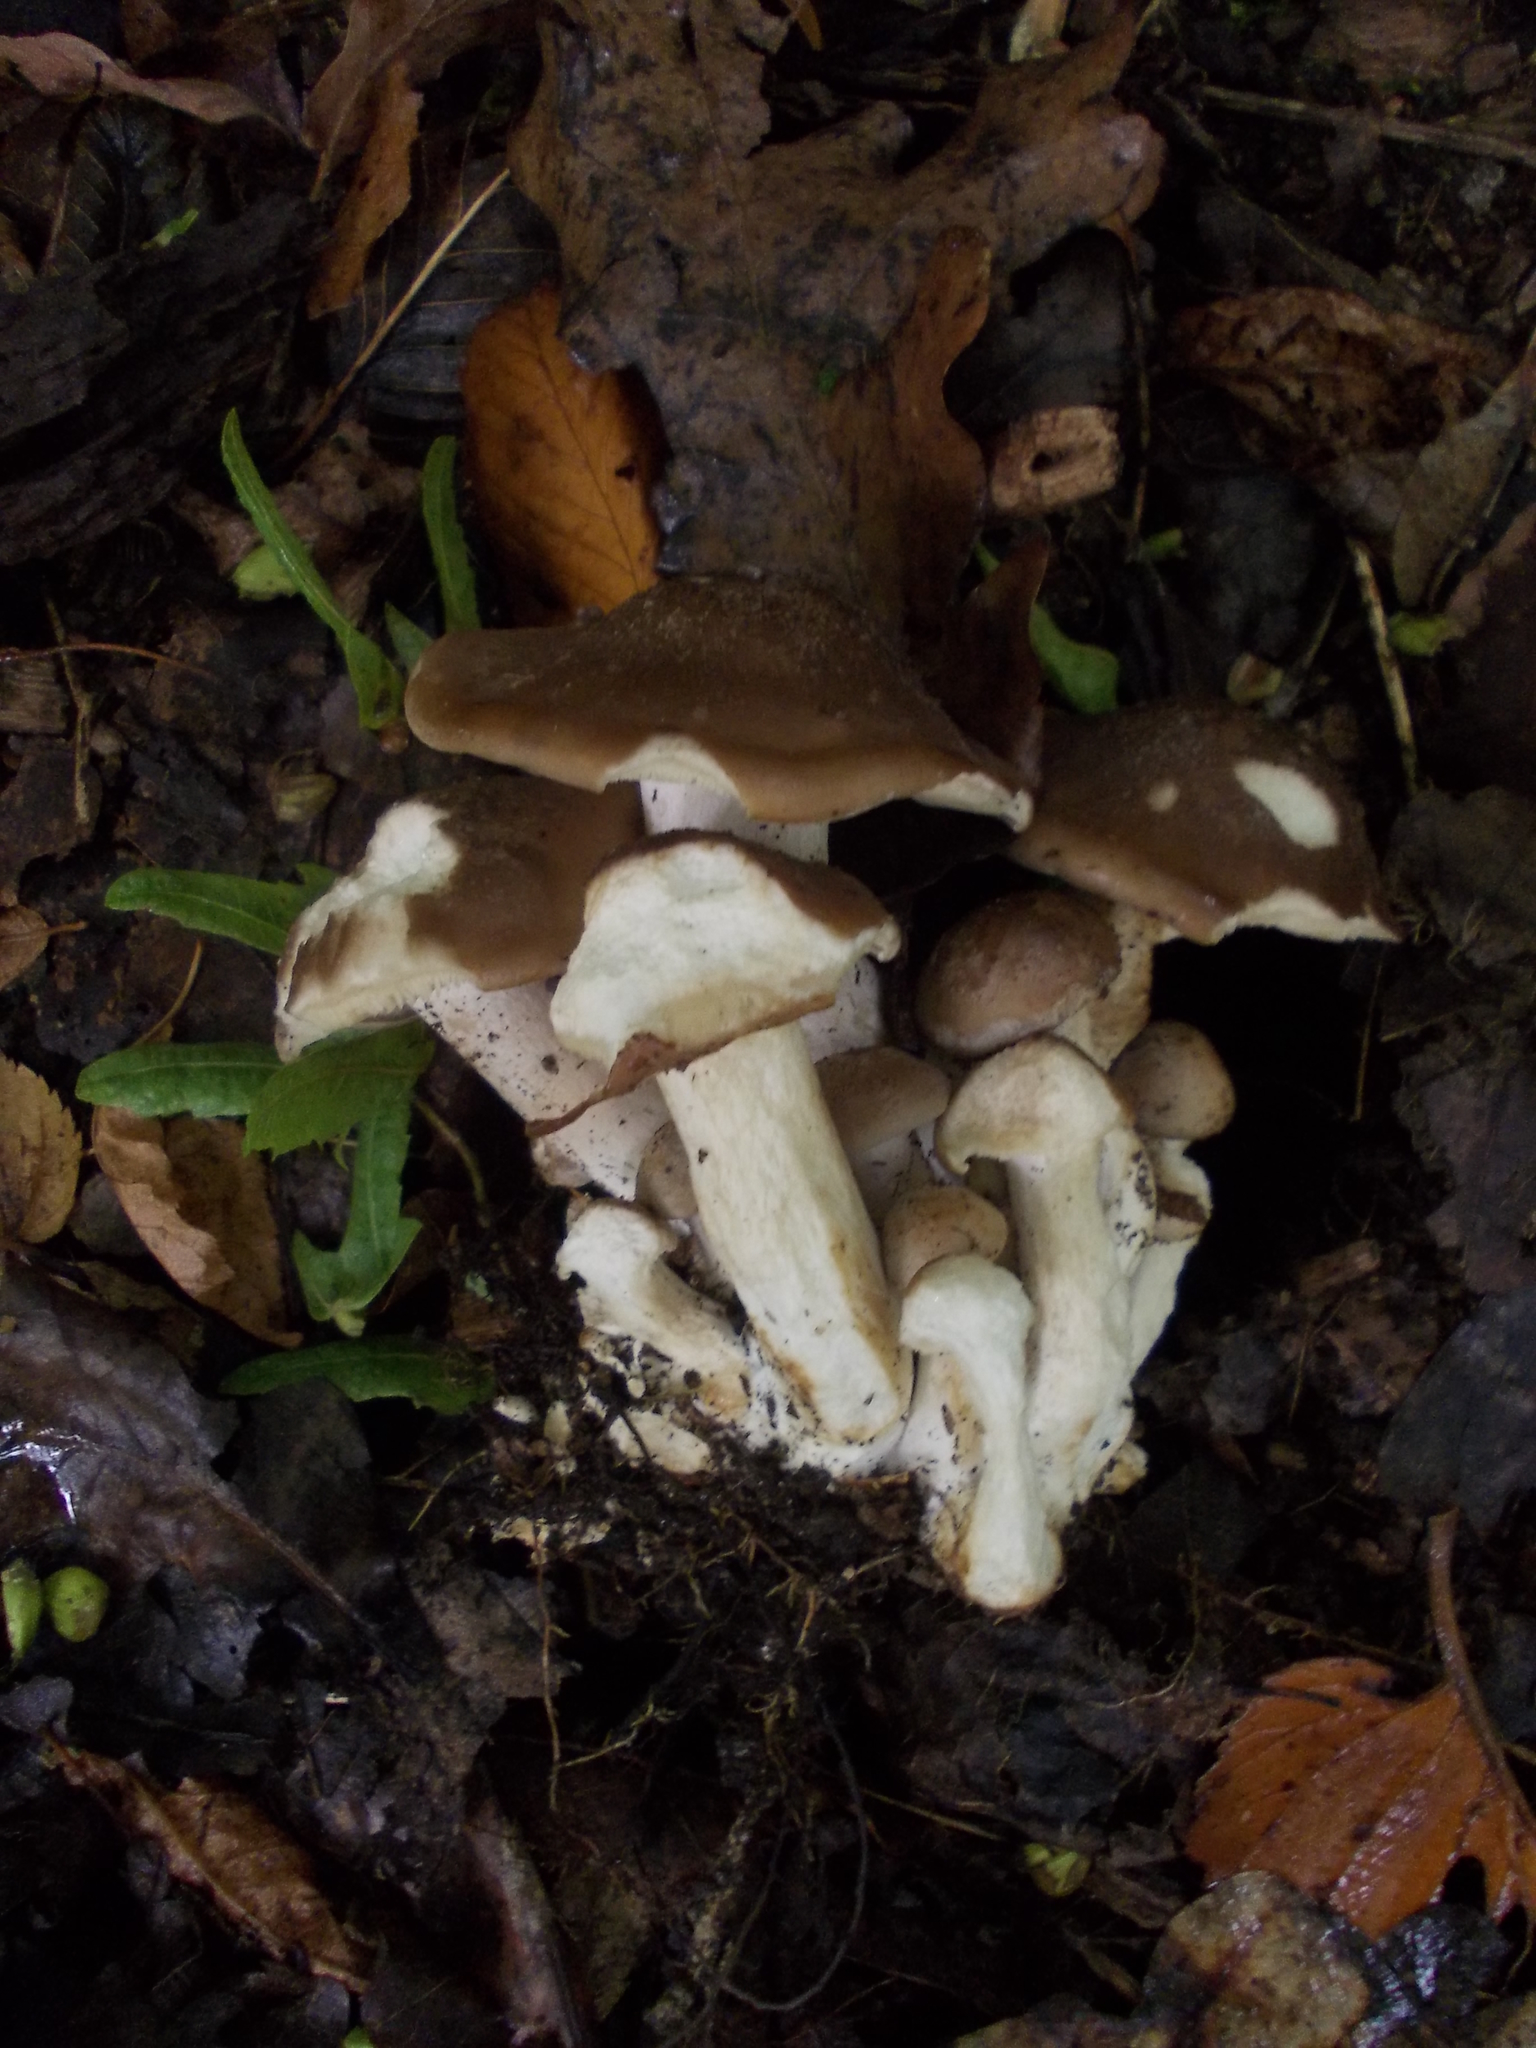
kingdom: Fungi
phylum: Basidiomycota
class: Agaricomycetes
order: Agaricales
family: Lyophyllaceae
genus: Lyophyllum
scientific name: Lyophyllum decastes
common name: Clustered domecap
